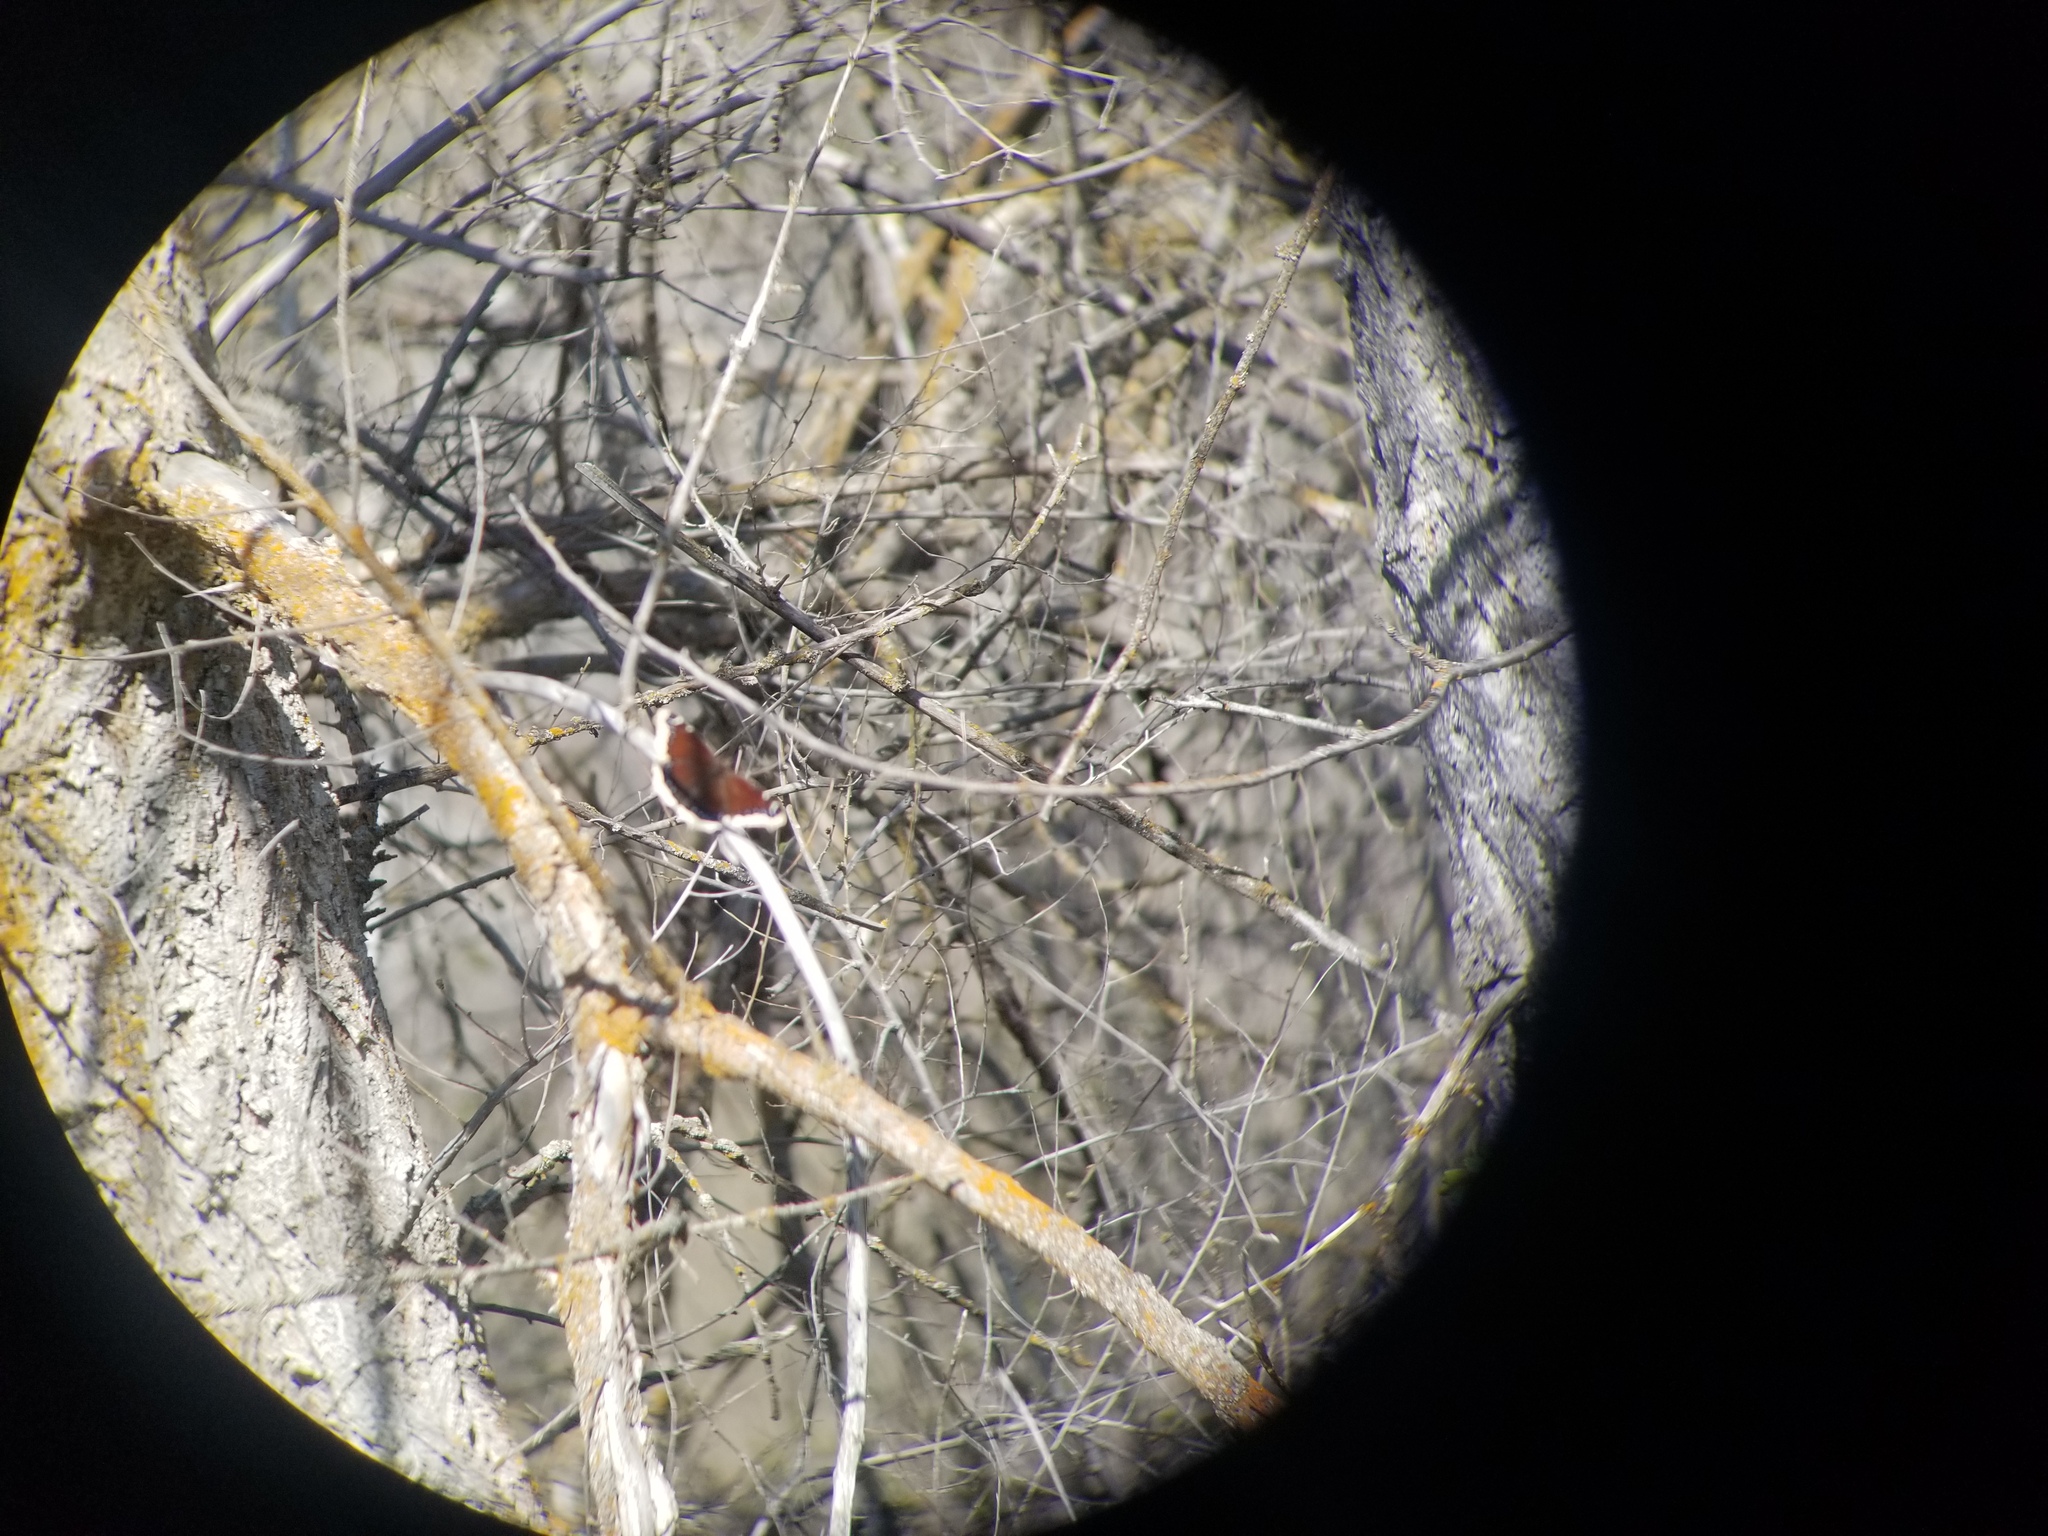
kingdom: Animalia
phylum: Arthropoda
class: Insecta
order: Lepidoptera
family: Nymphalidae
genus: Nymphalis
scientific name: Nymphalis antiopa
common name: Camberwell beauty
